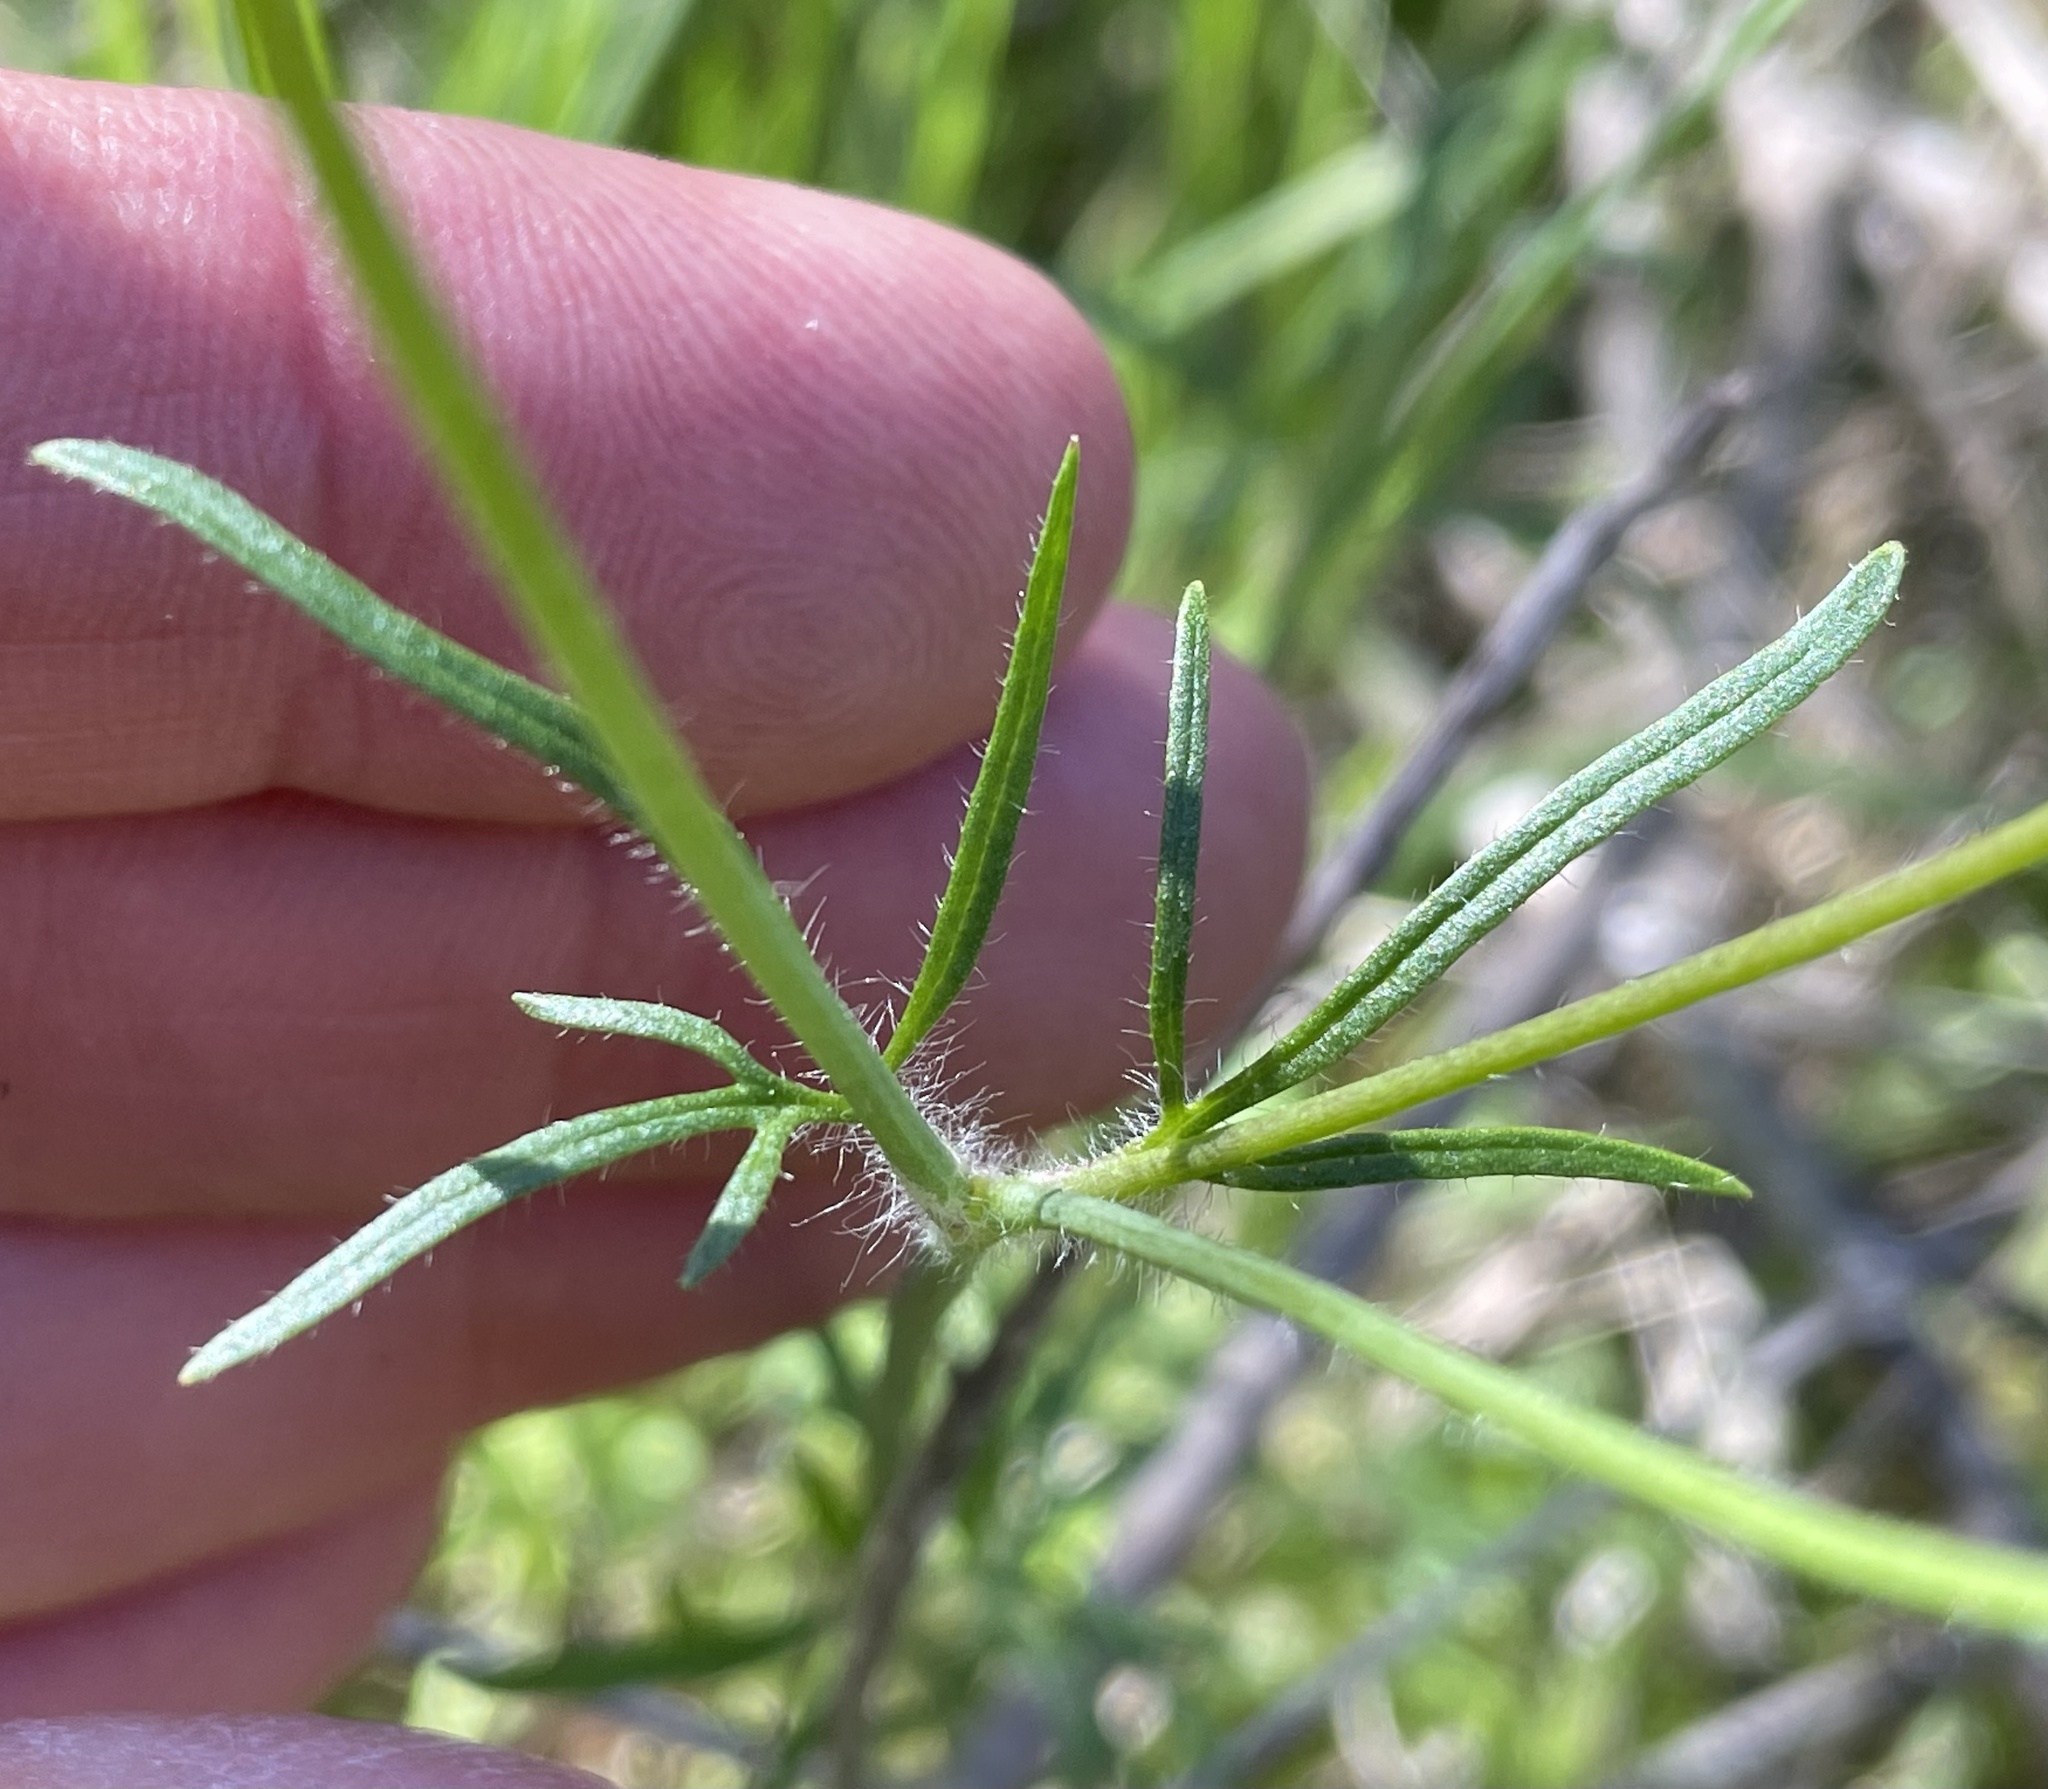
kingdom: Plantae
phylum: Tracheophyta
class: Magnoliopsida
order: Ranunculales
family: Ranunculaceae
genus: Ranunculus
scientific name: Ranunculus californicus
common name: California buttercup
